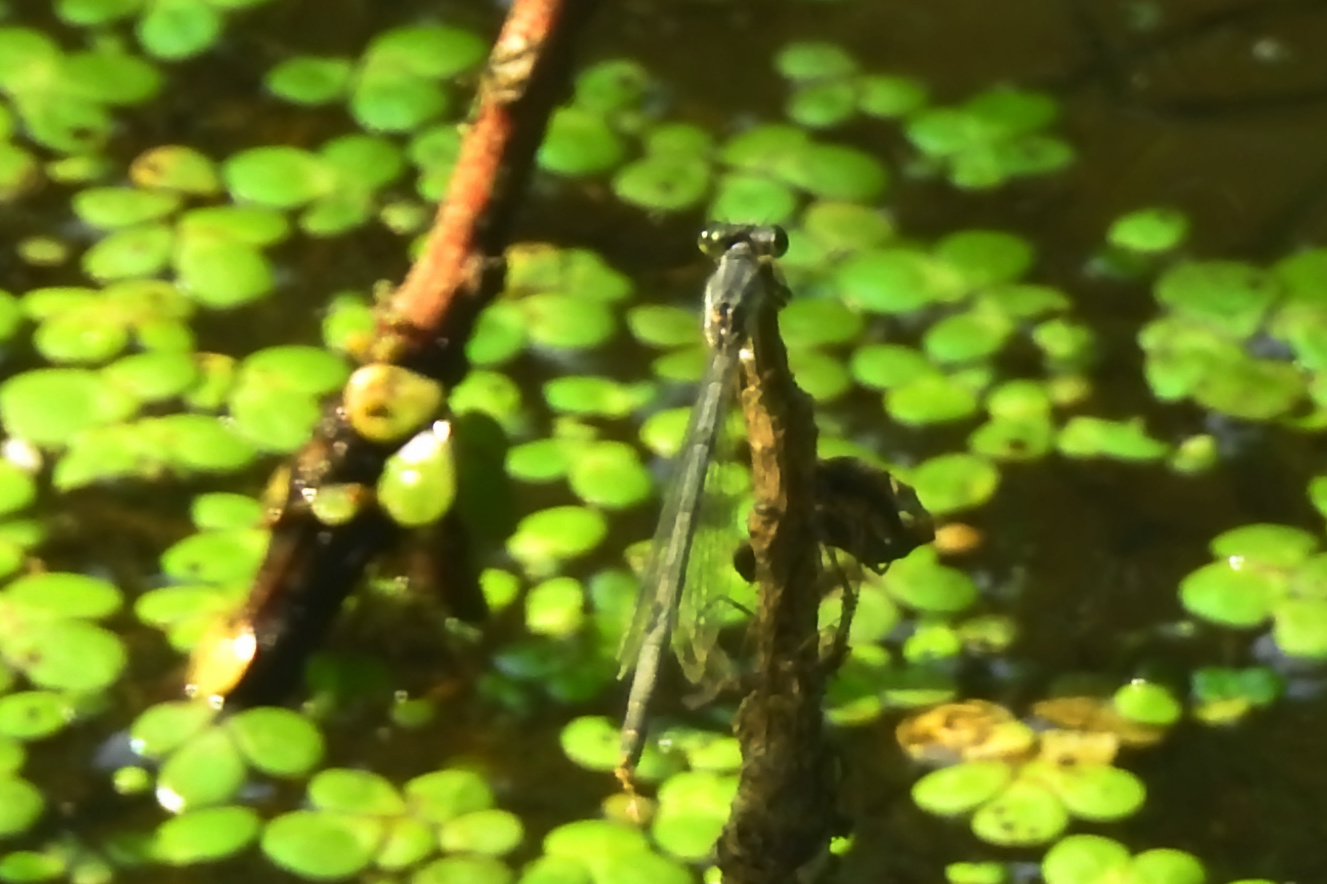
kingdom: Animalia
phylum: Arthropoda
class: Insecta
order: Odonata
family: Coenagrionidae
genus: Ischnura
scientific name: Ischnura posita
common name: Fragile forktail
